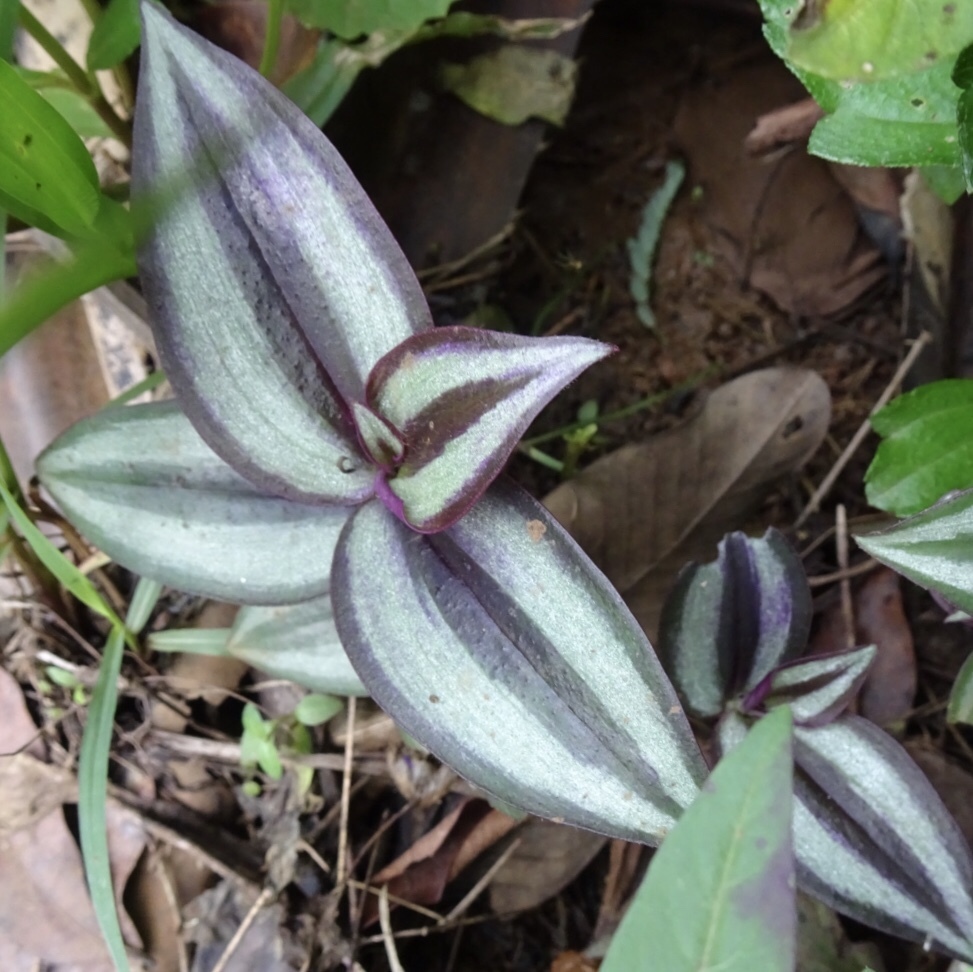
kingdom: Plantae
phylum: Tracheophyta
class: Liliopsida
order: Commelinales
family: Commelinaceae
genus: Tradescantia
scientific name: Tradescantia zebrina
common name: Inchplant
